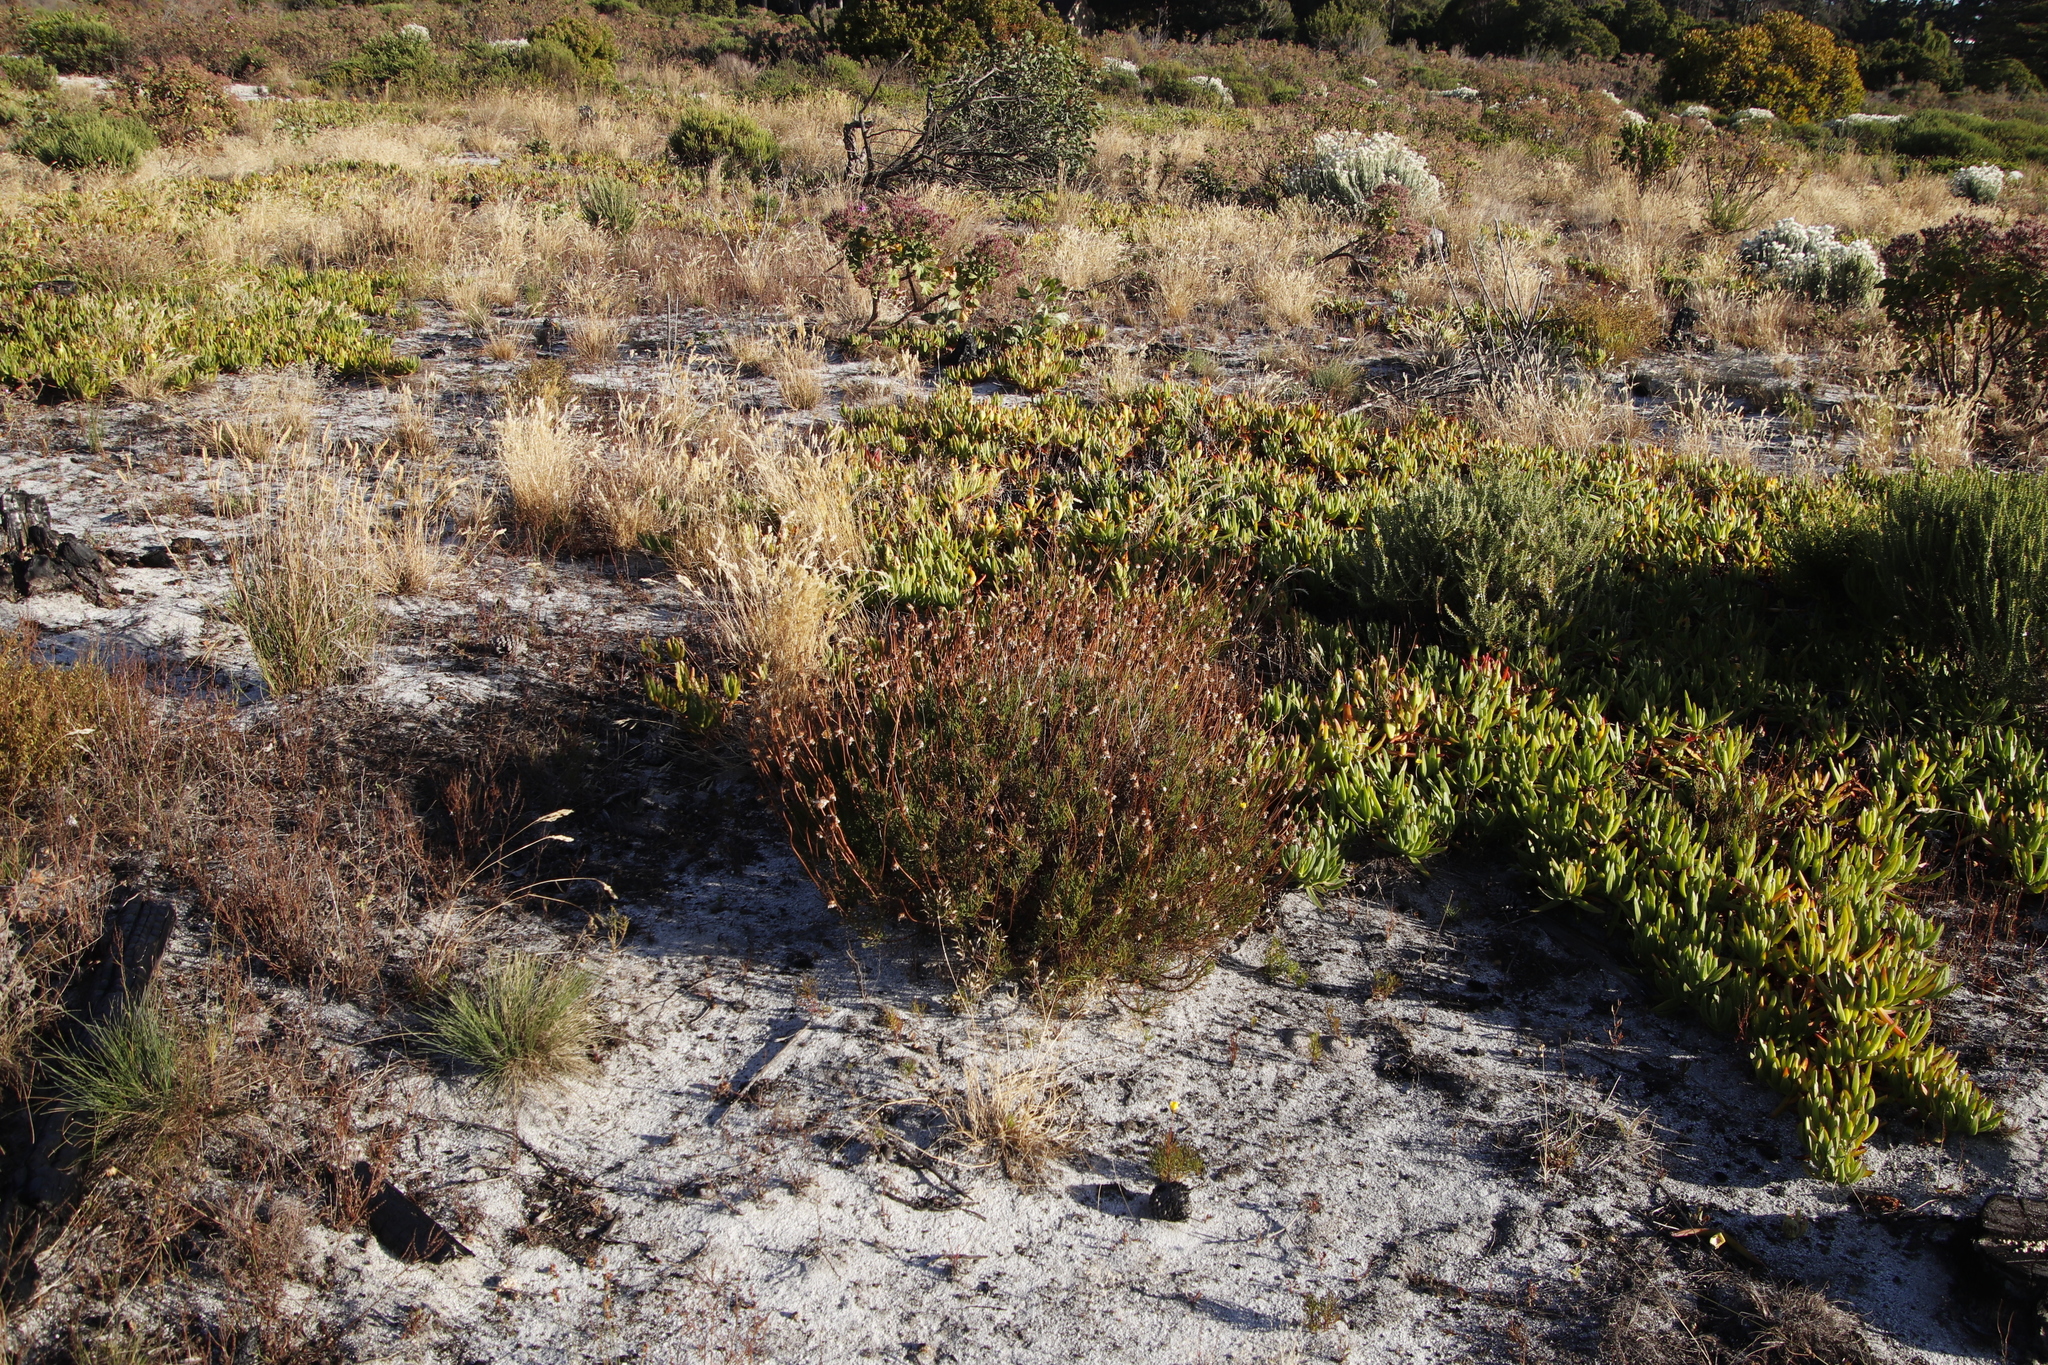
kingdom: Plantae
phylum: Tracheophyta
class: Magnoliopsida
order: Asterales
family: Asteraceae
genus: Ursinia
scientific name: Ursinia paleacea
